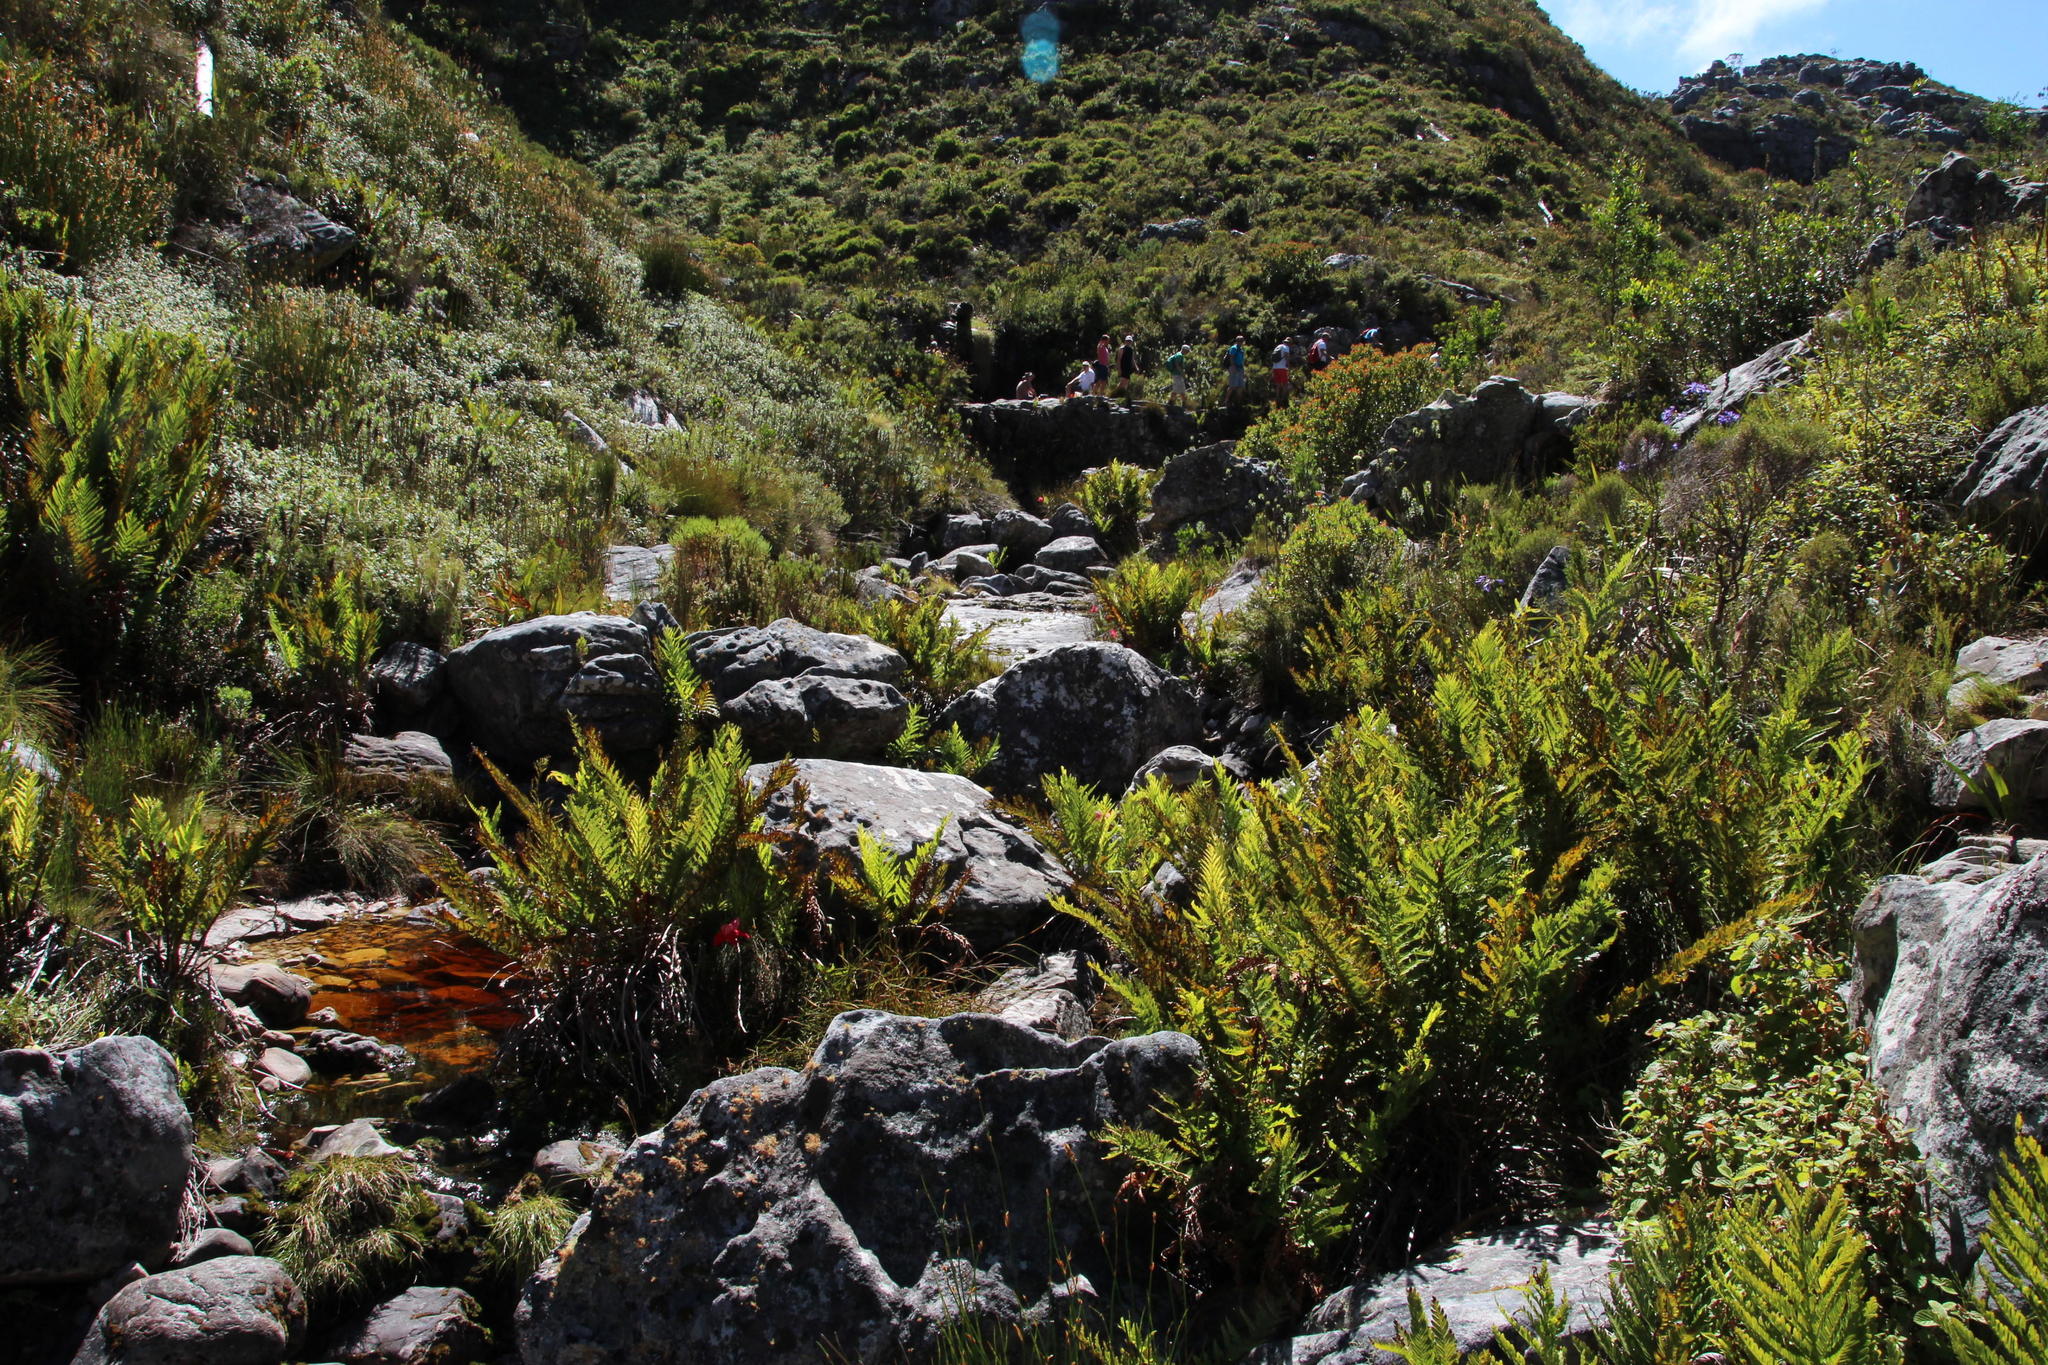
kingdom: Plantae
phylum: Tracheophyta
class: Polypodiopsida
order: Osmundales
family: Osmundaceae
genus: Todea
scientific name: Todea barbara
